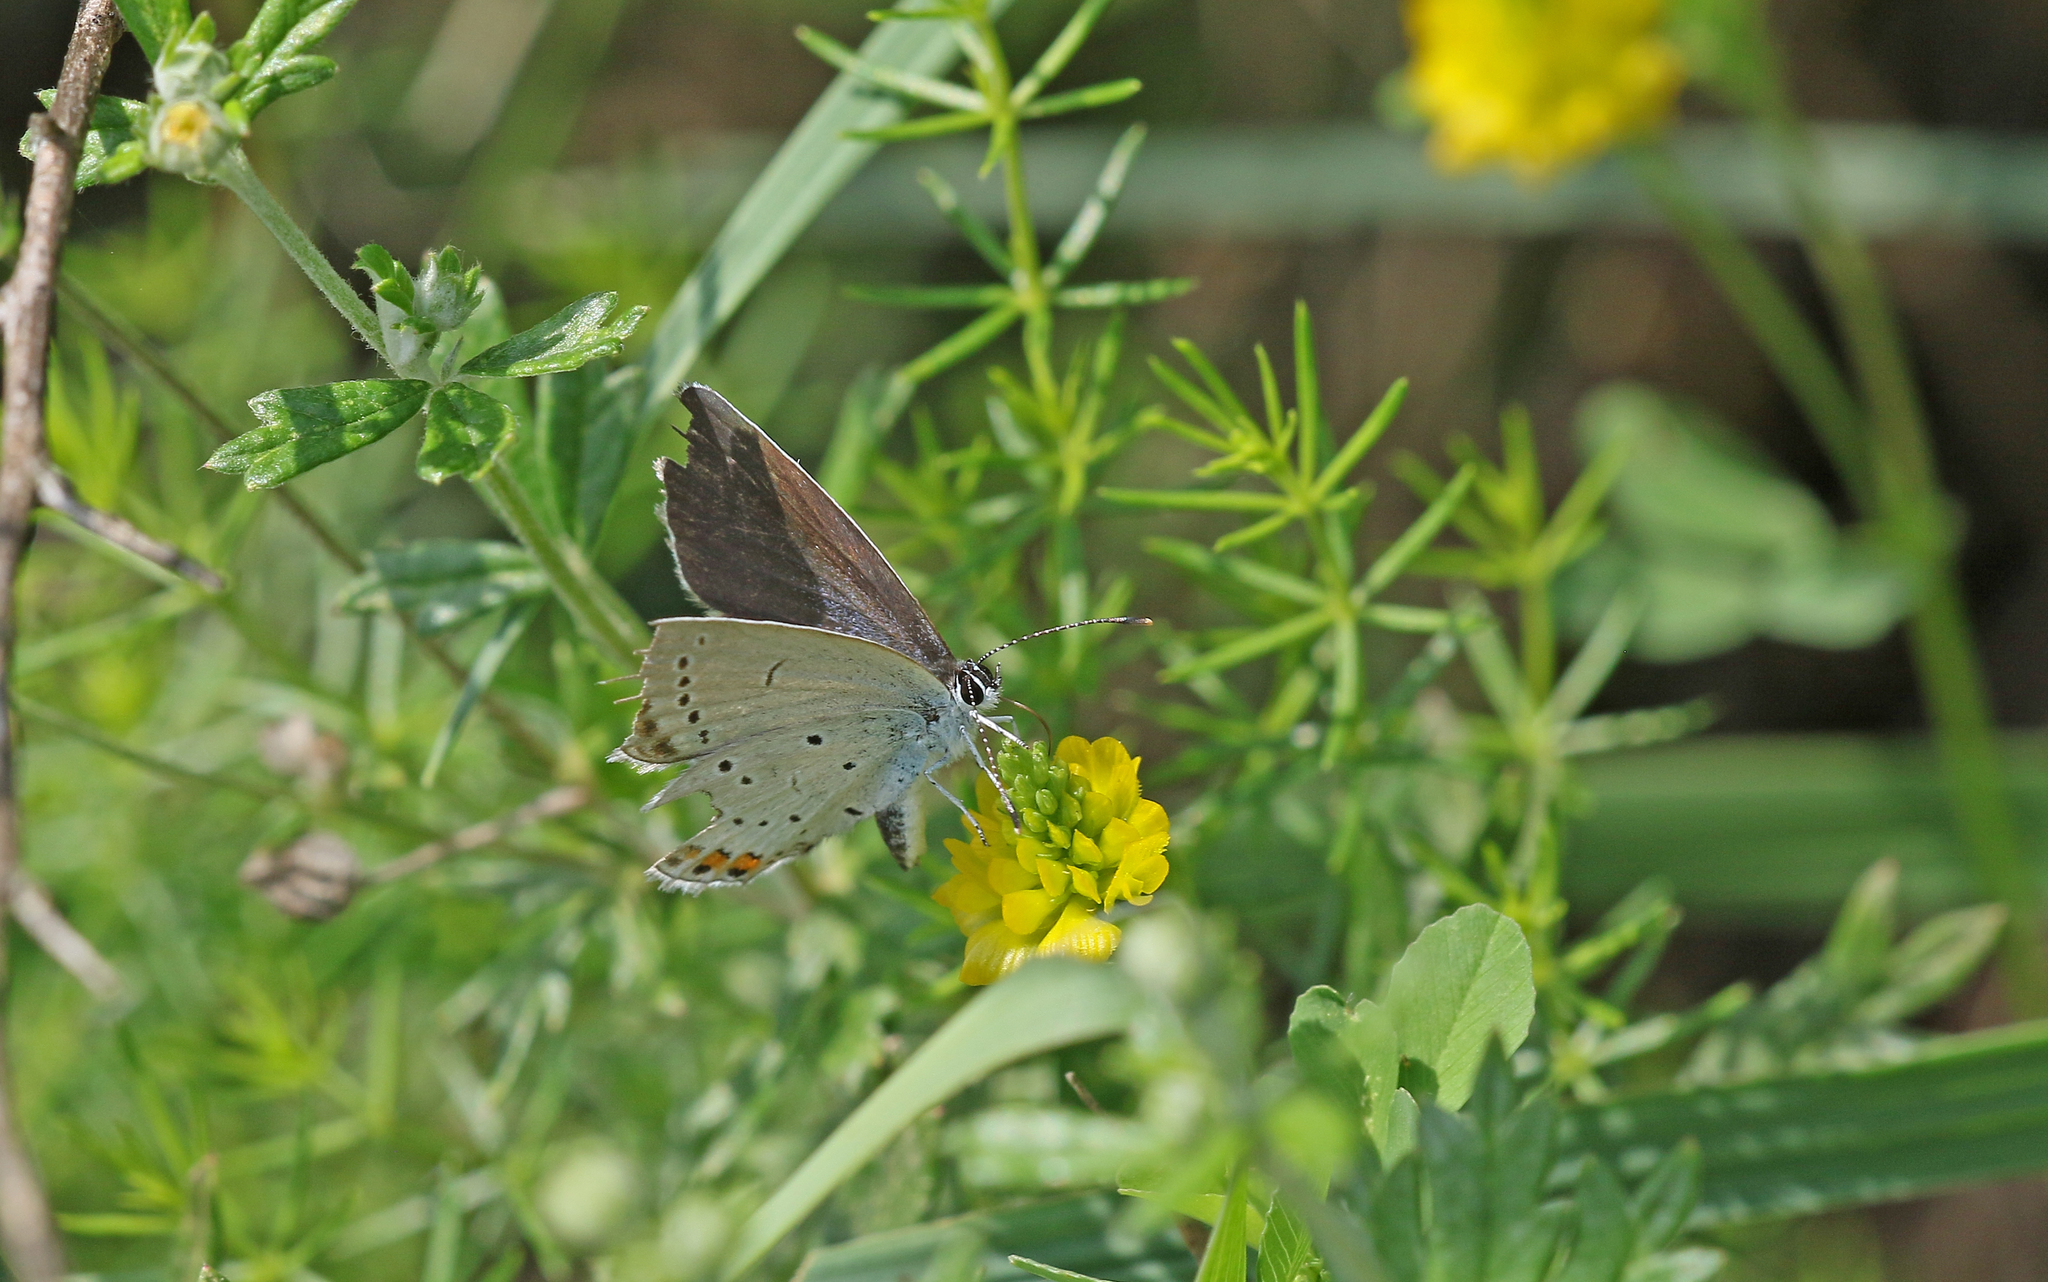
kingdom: Animalia
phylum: Arthropoda
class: Insecta
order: Lepidoptera
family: Lycaenidae
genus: Elkalyce
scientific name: Elkalyce argiades
